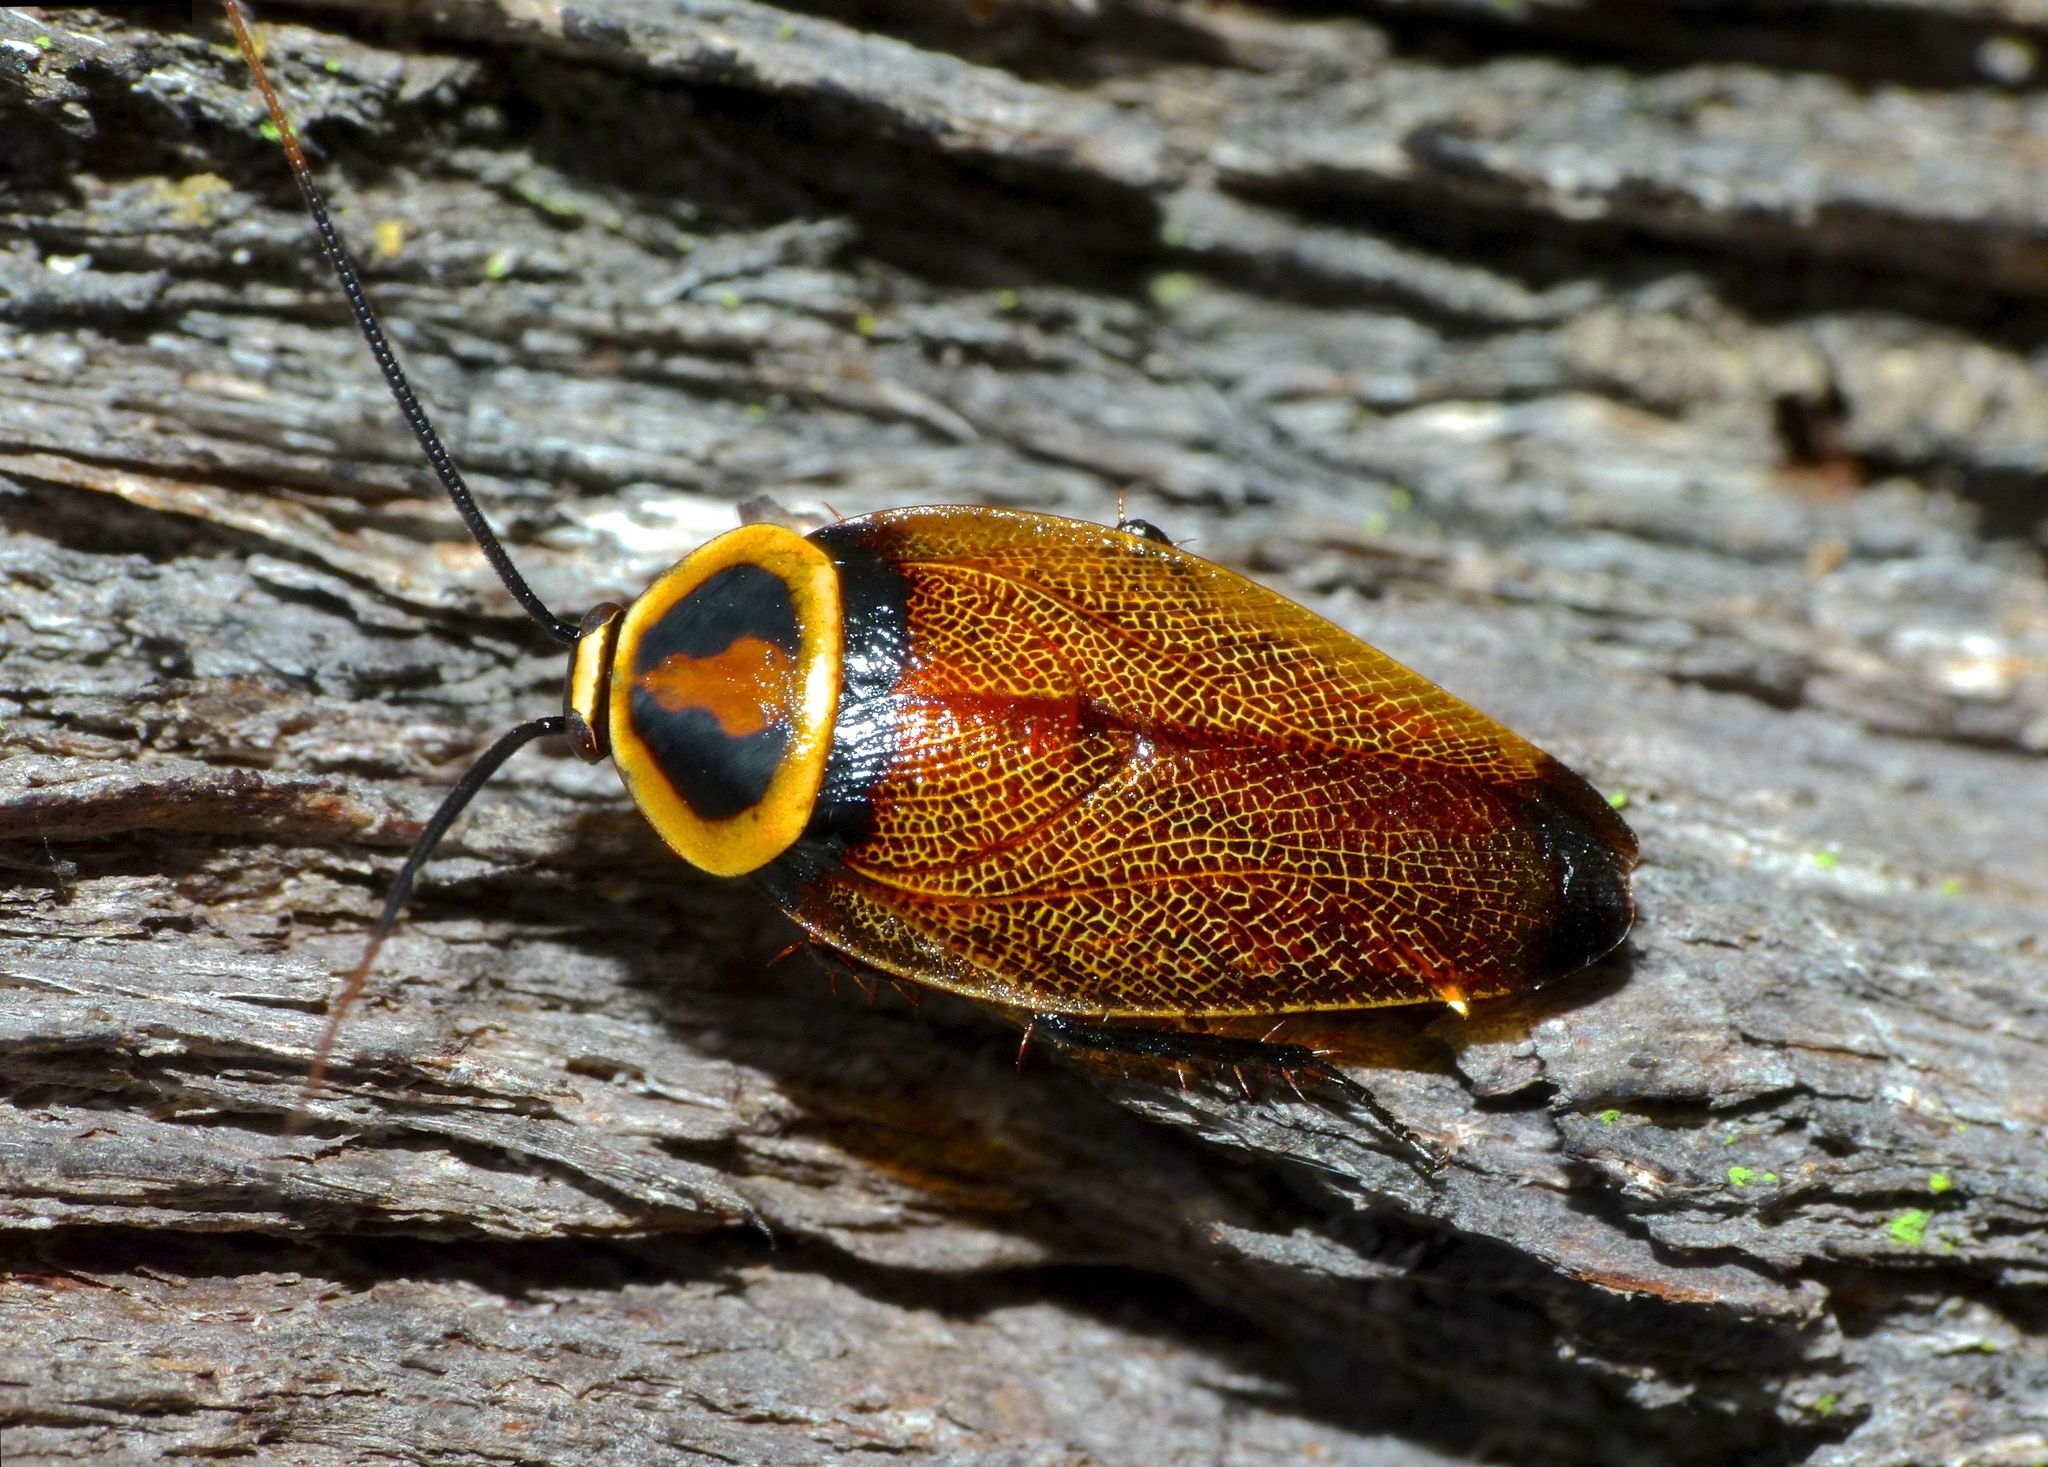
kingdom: Animalia
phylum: Arthropoda
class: Insecta
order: Blattodea
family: Ectobiidae
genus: Ellipsidion
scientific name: Ellipsidion reticulatum
